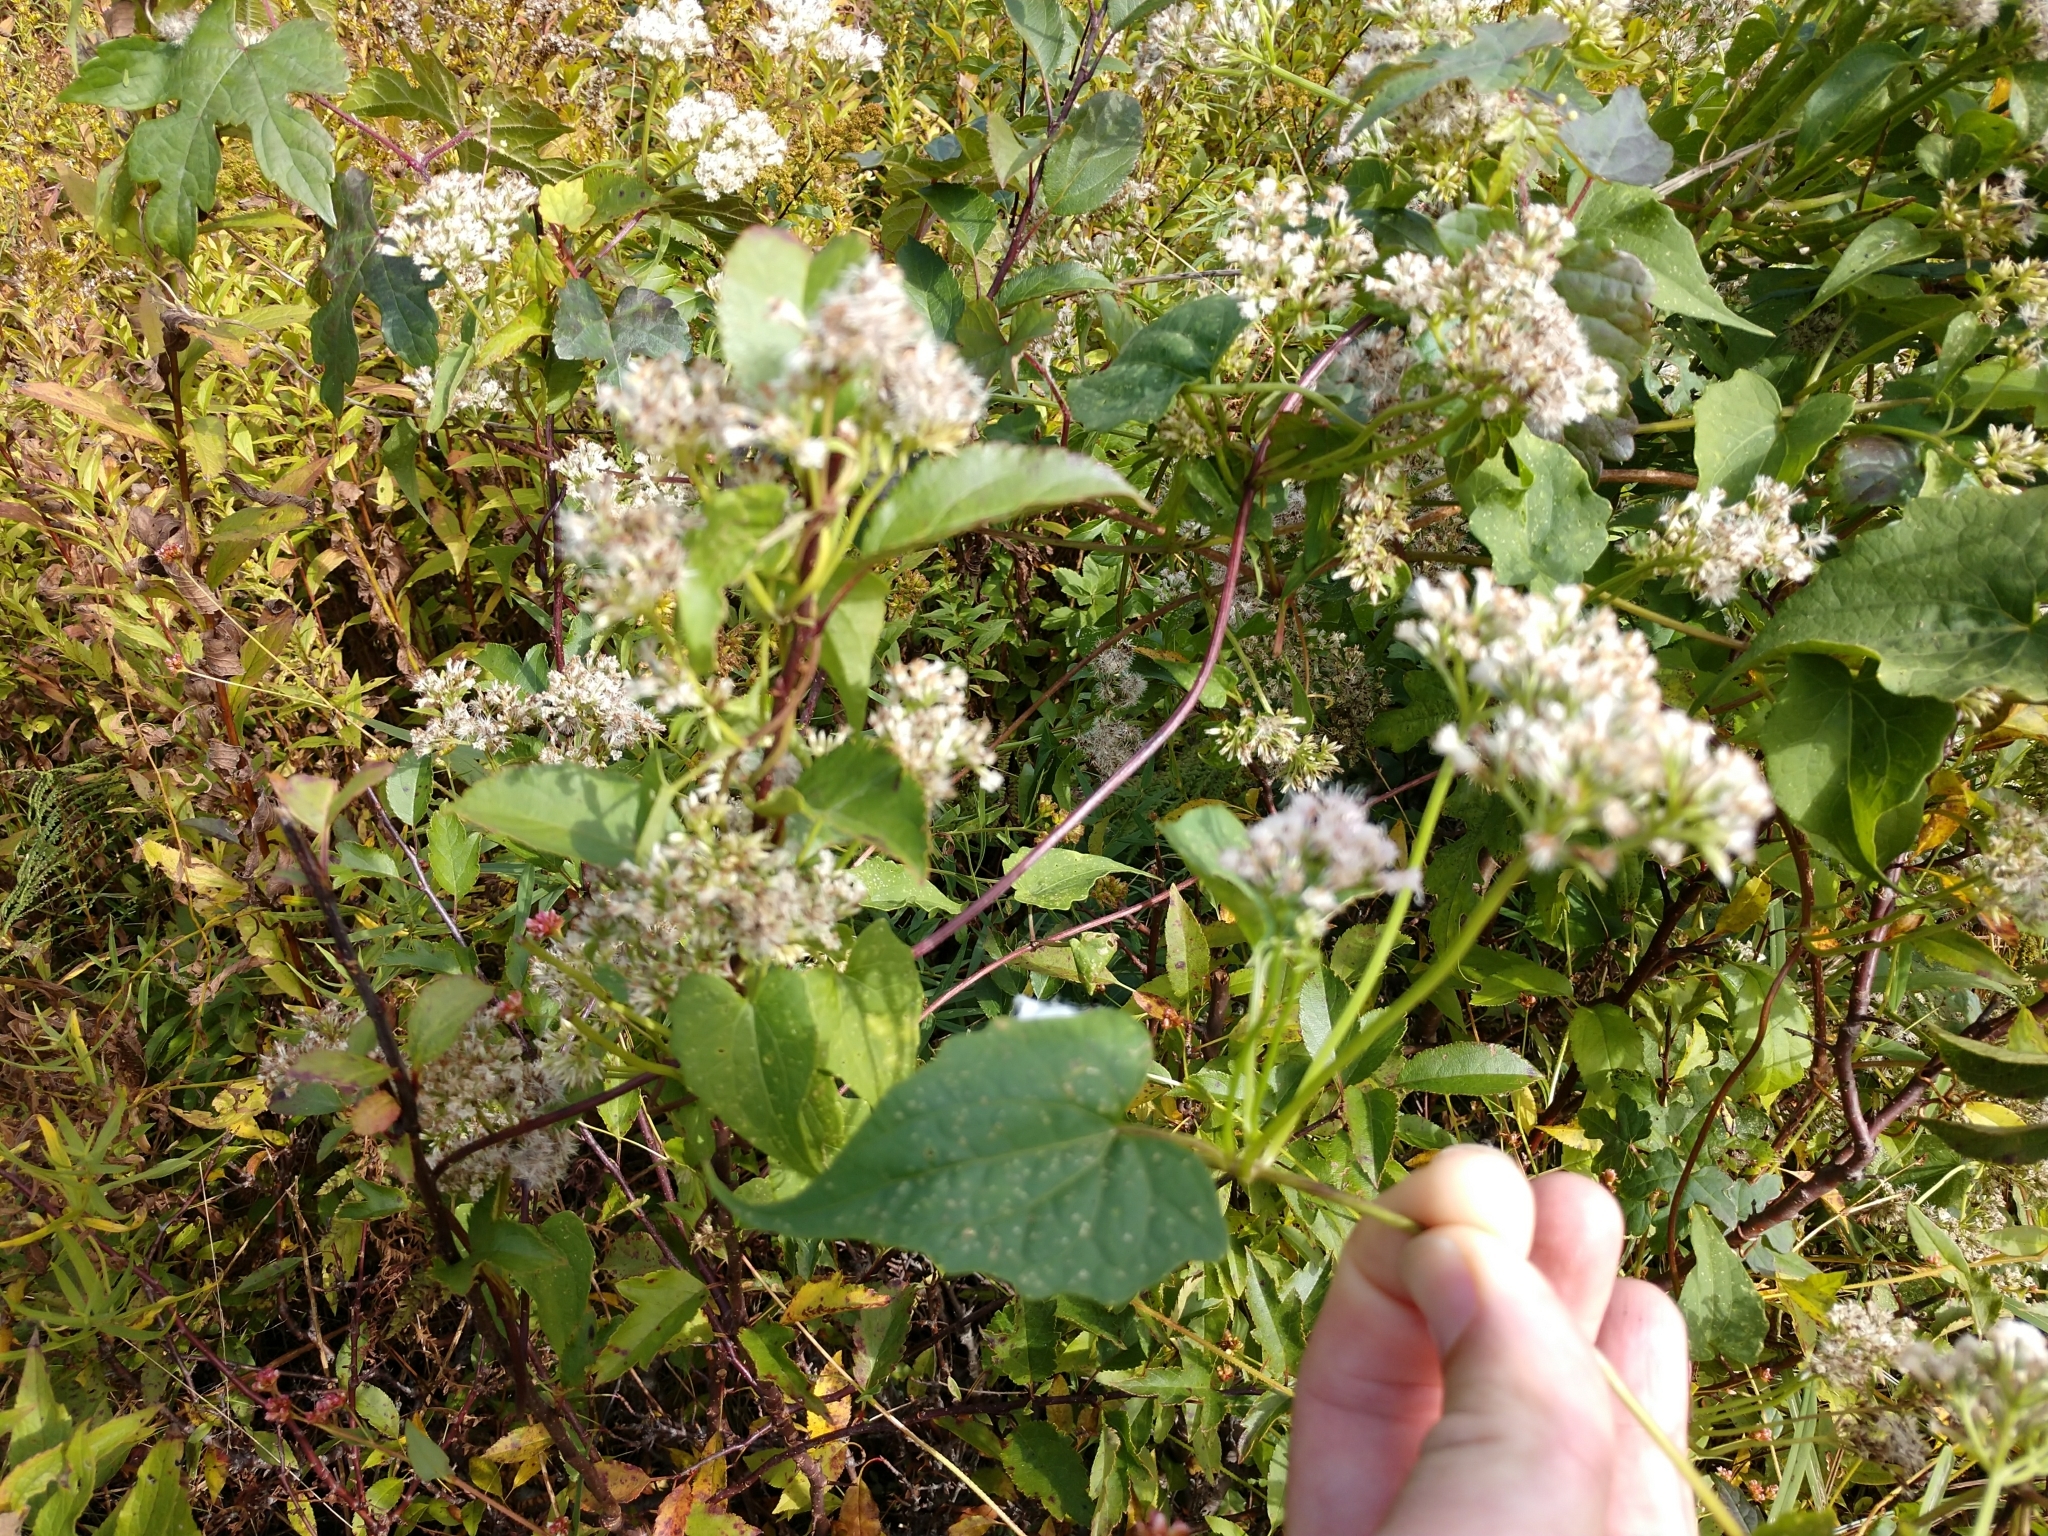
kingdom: Plantae
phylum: Tracheophyta
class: Magnoliopsida
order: Asterales
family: Asteraceae
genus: Mikania
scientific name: Mikania scandens
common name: Climbing hempvine
